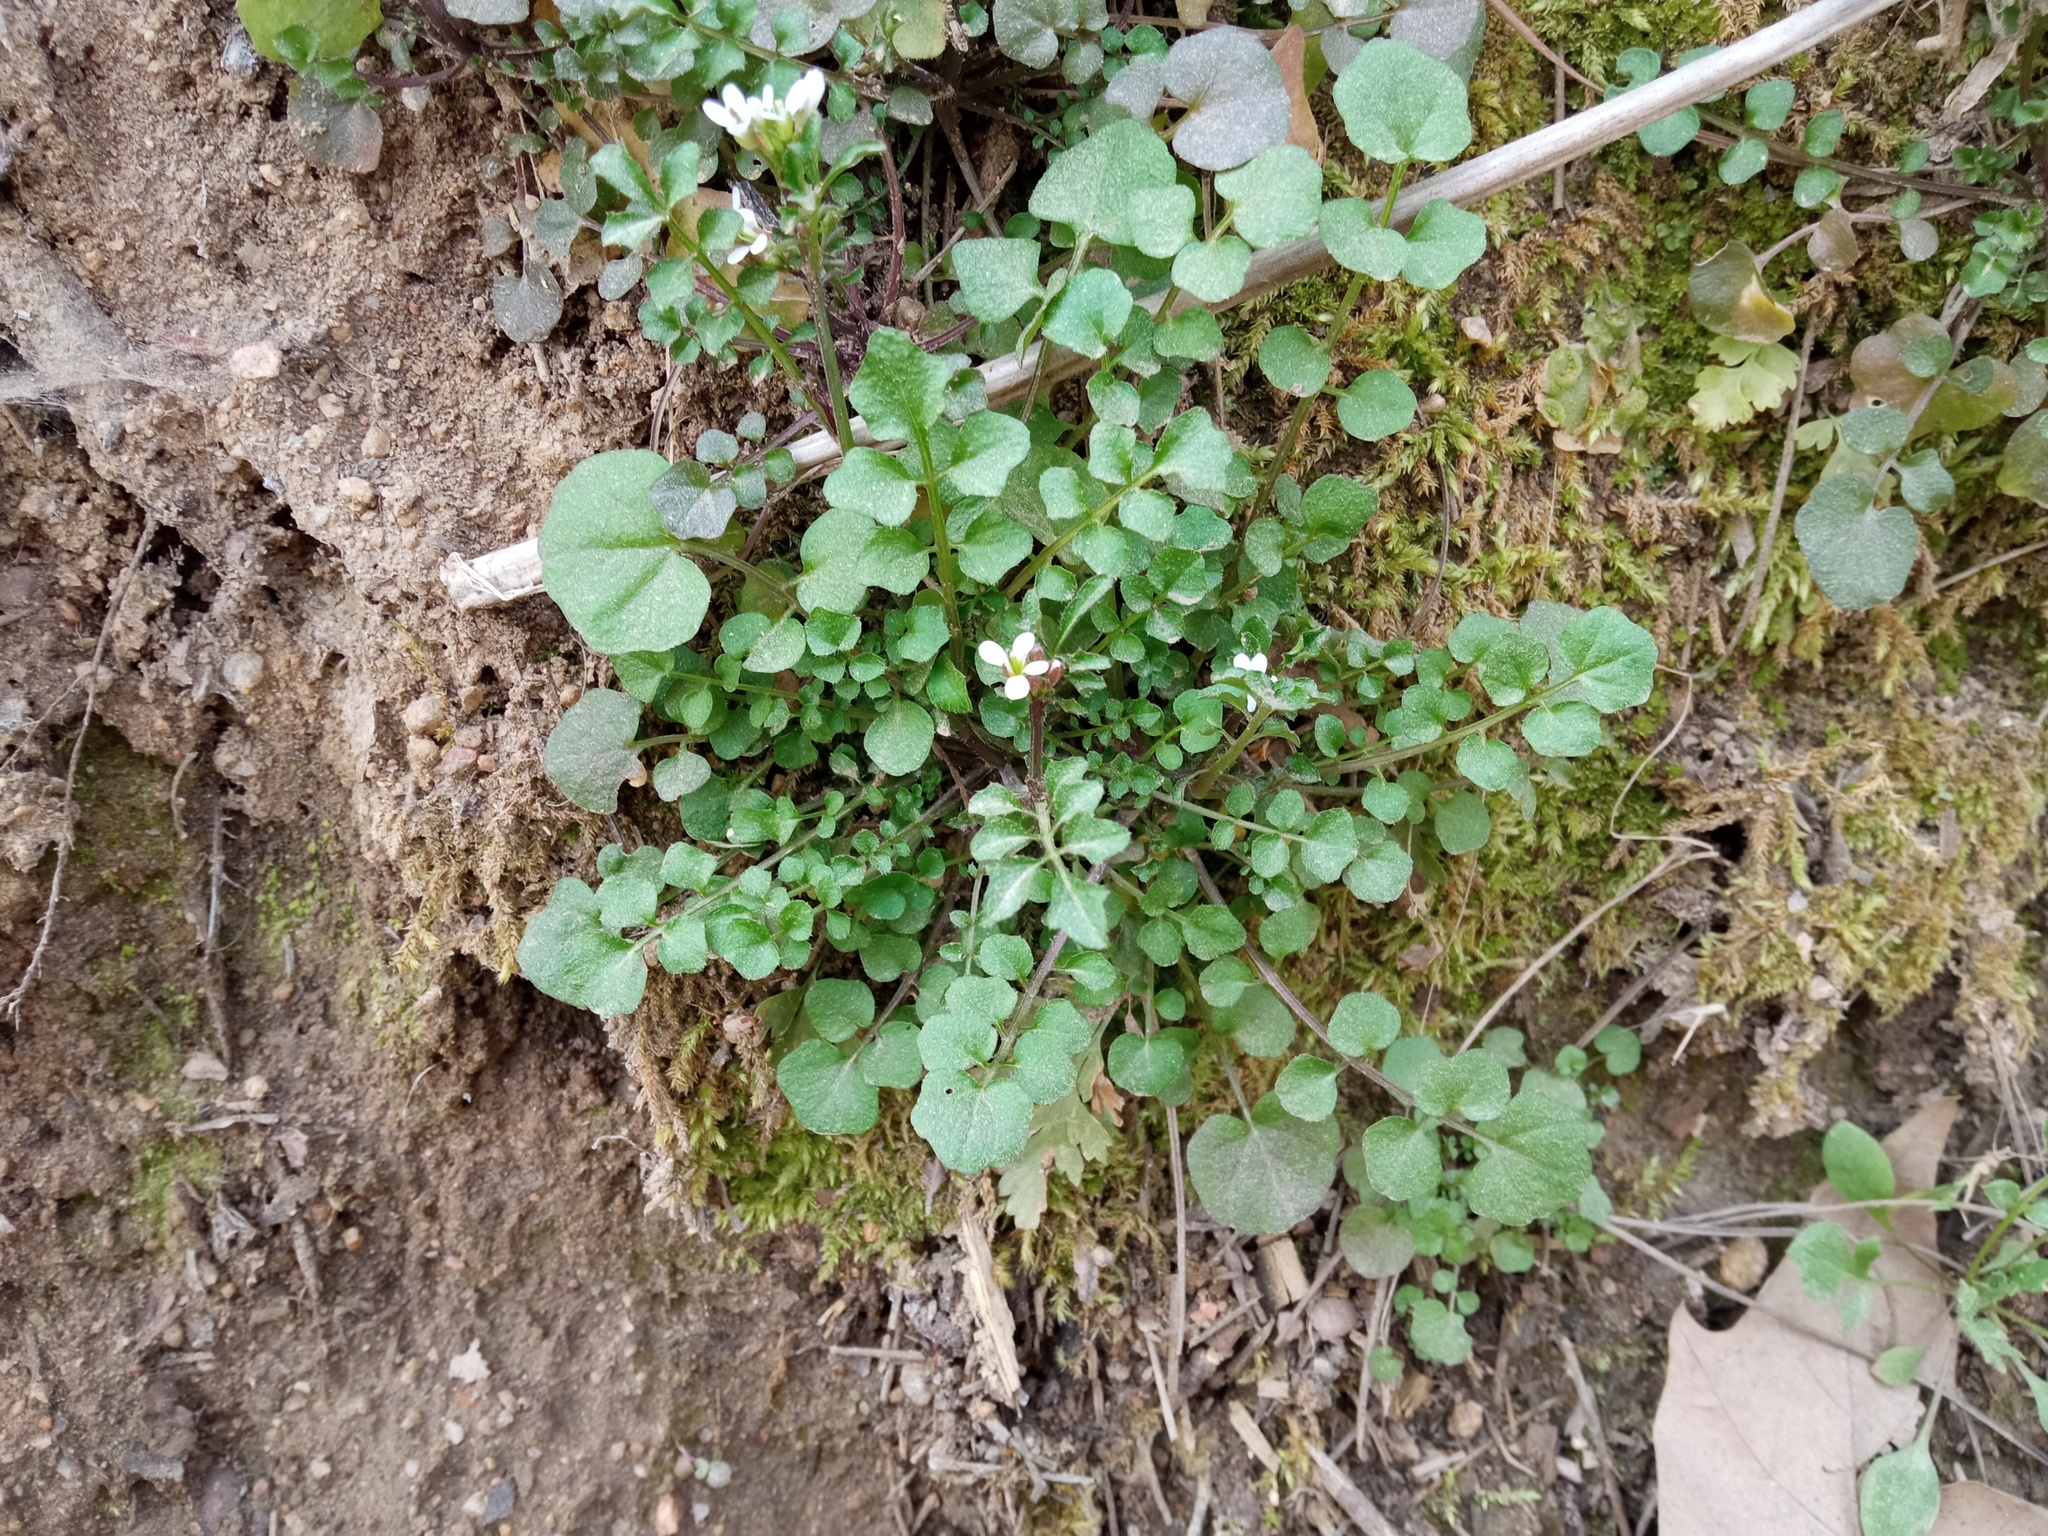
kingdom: Plantae
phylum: Tracheophyta
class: Magnoliopsida
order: Brassicales
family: Brassicaceae
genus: Cardamine
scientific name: Cardamine hirsuta
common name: Hairy bittercress
